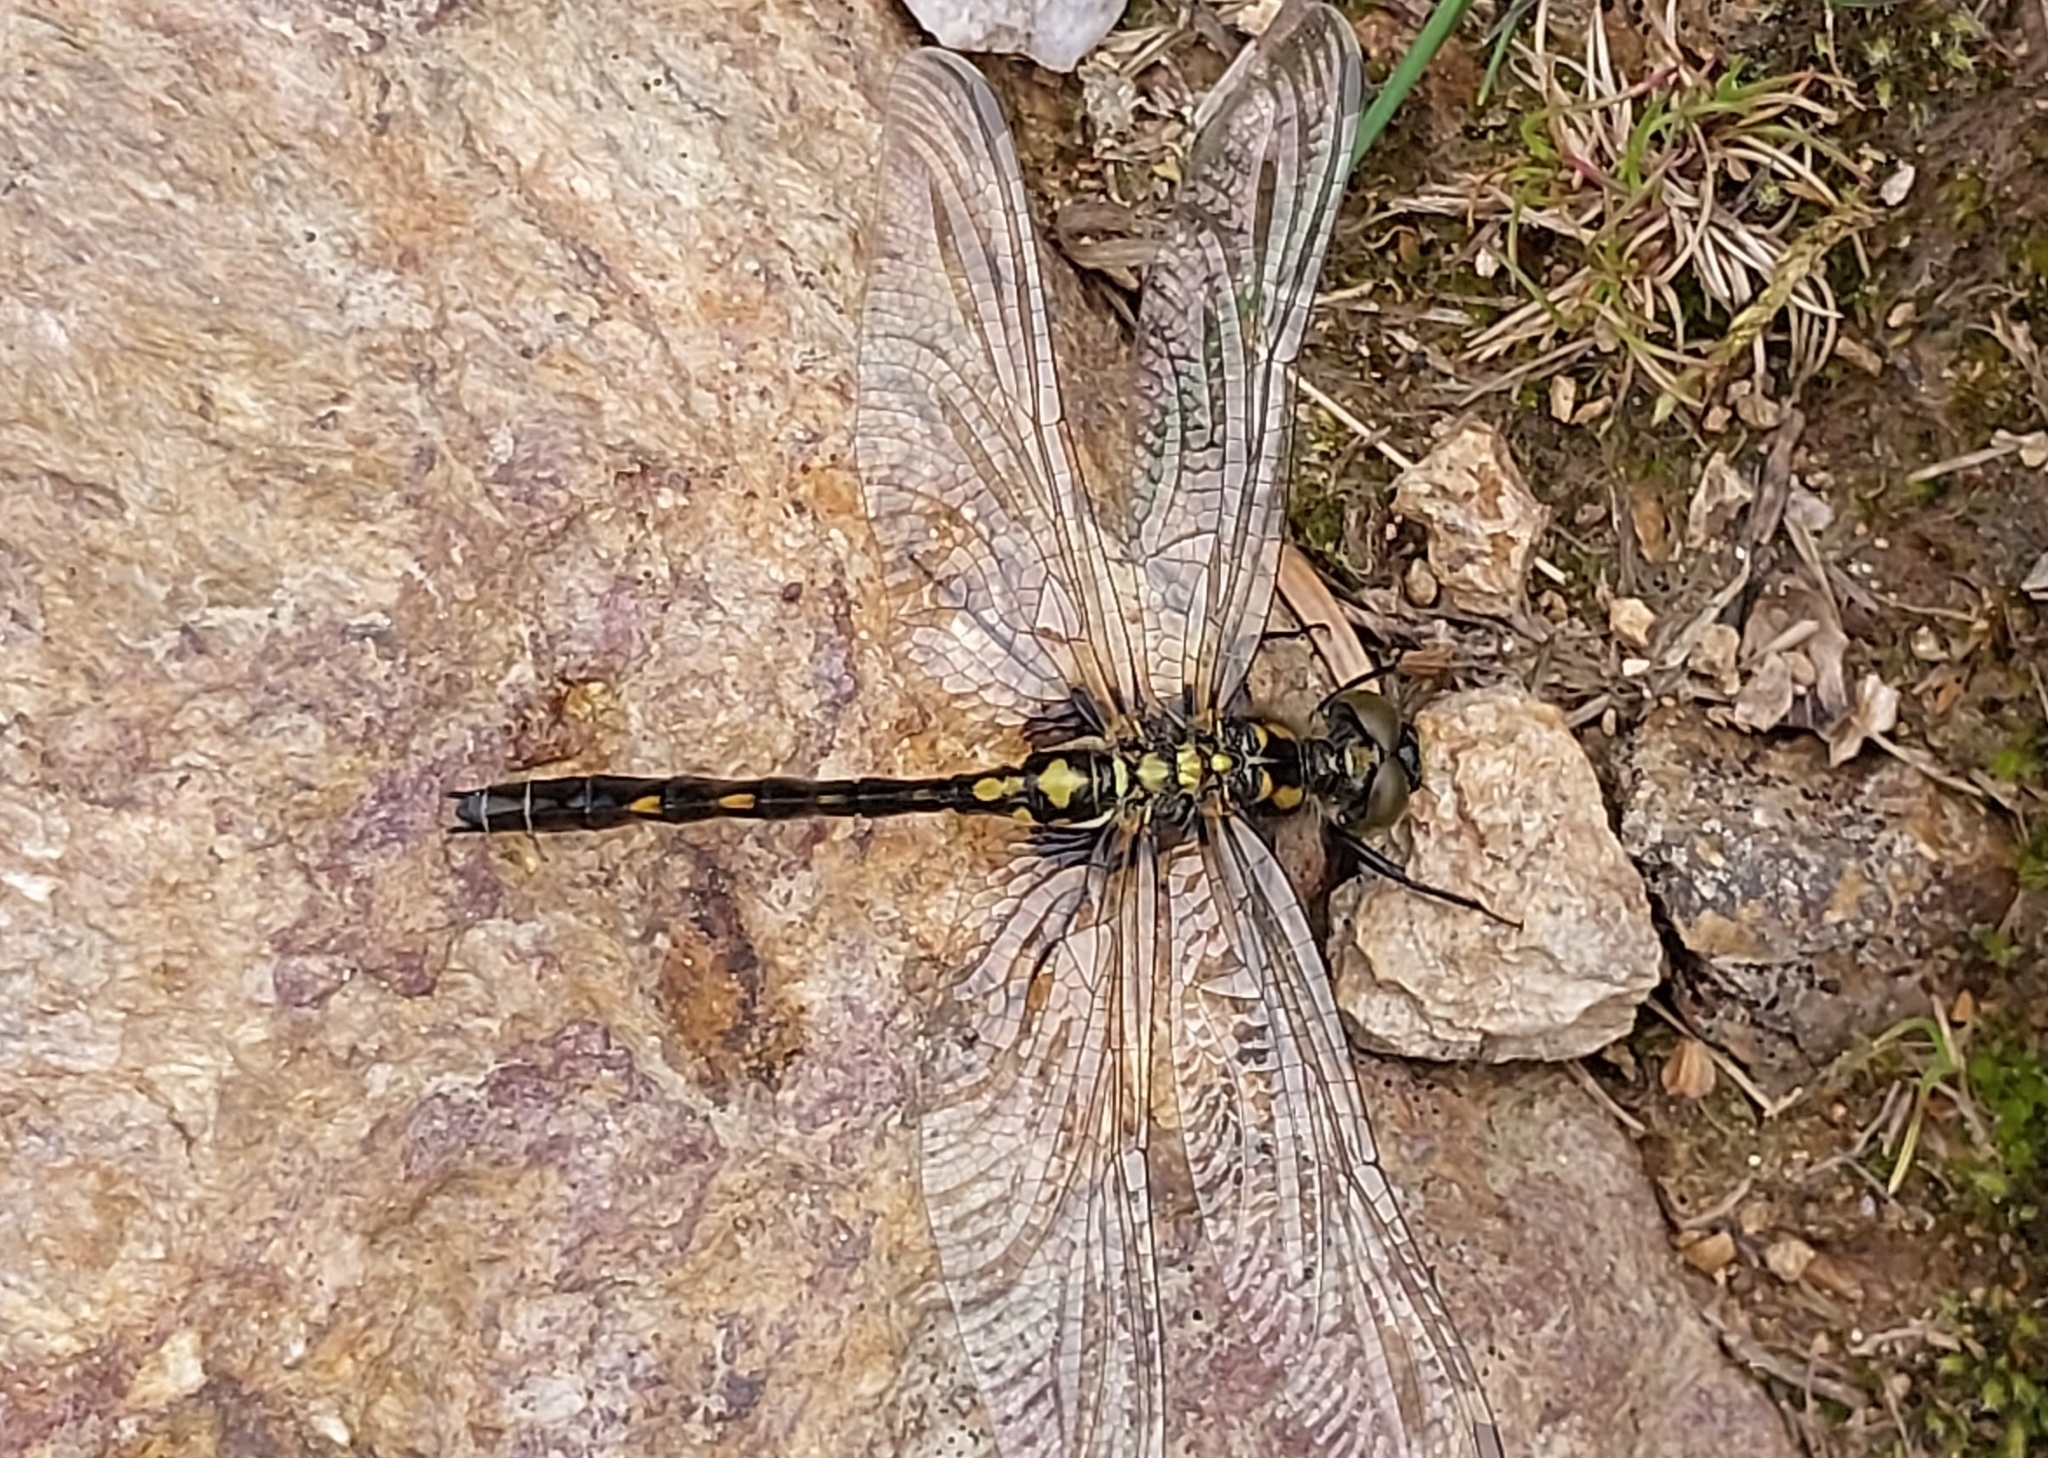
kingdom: Animalia
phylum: Arthropoda
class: Insecta
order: Odonata
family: Libellulidae
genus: Leucorrhinia
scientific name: Leucorrhinia dubia
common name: White-faced darter
